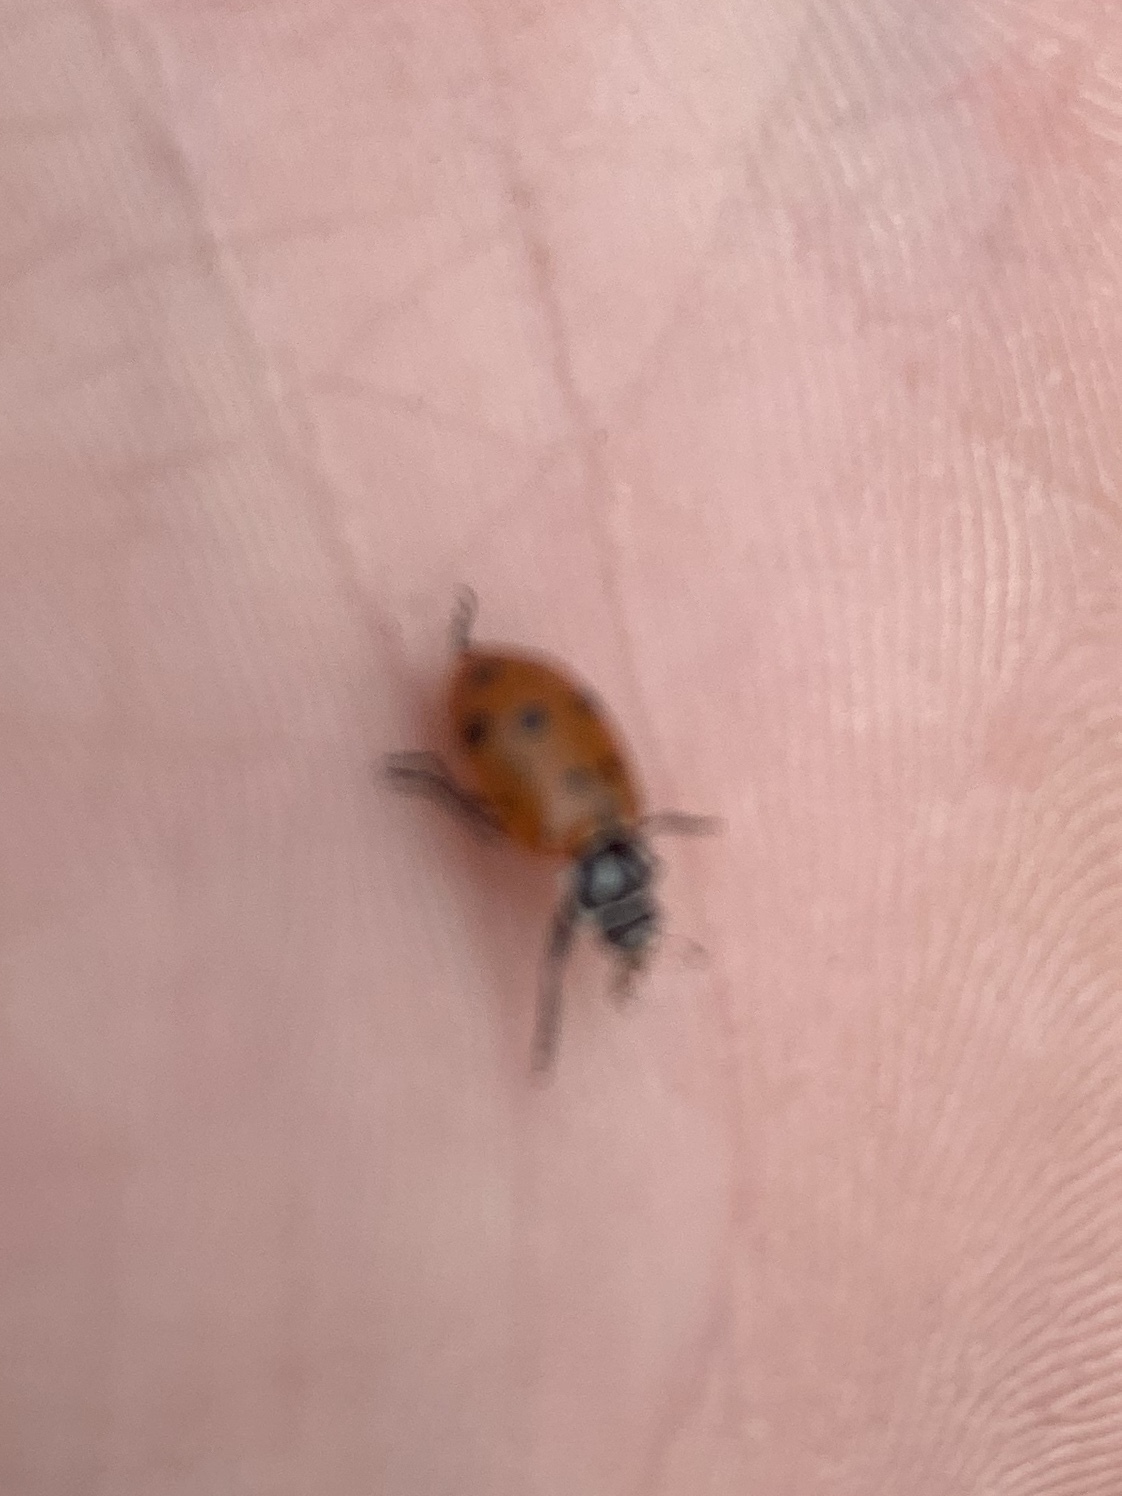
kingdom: Animalia
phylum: Arthropoda
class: Insecta
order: Coleoptera
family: Coccinellidae
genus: Hippodamia
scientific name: Hippodamia convergens
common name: Convergent lady beetle
